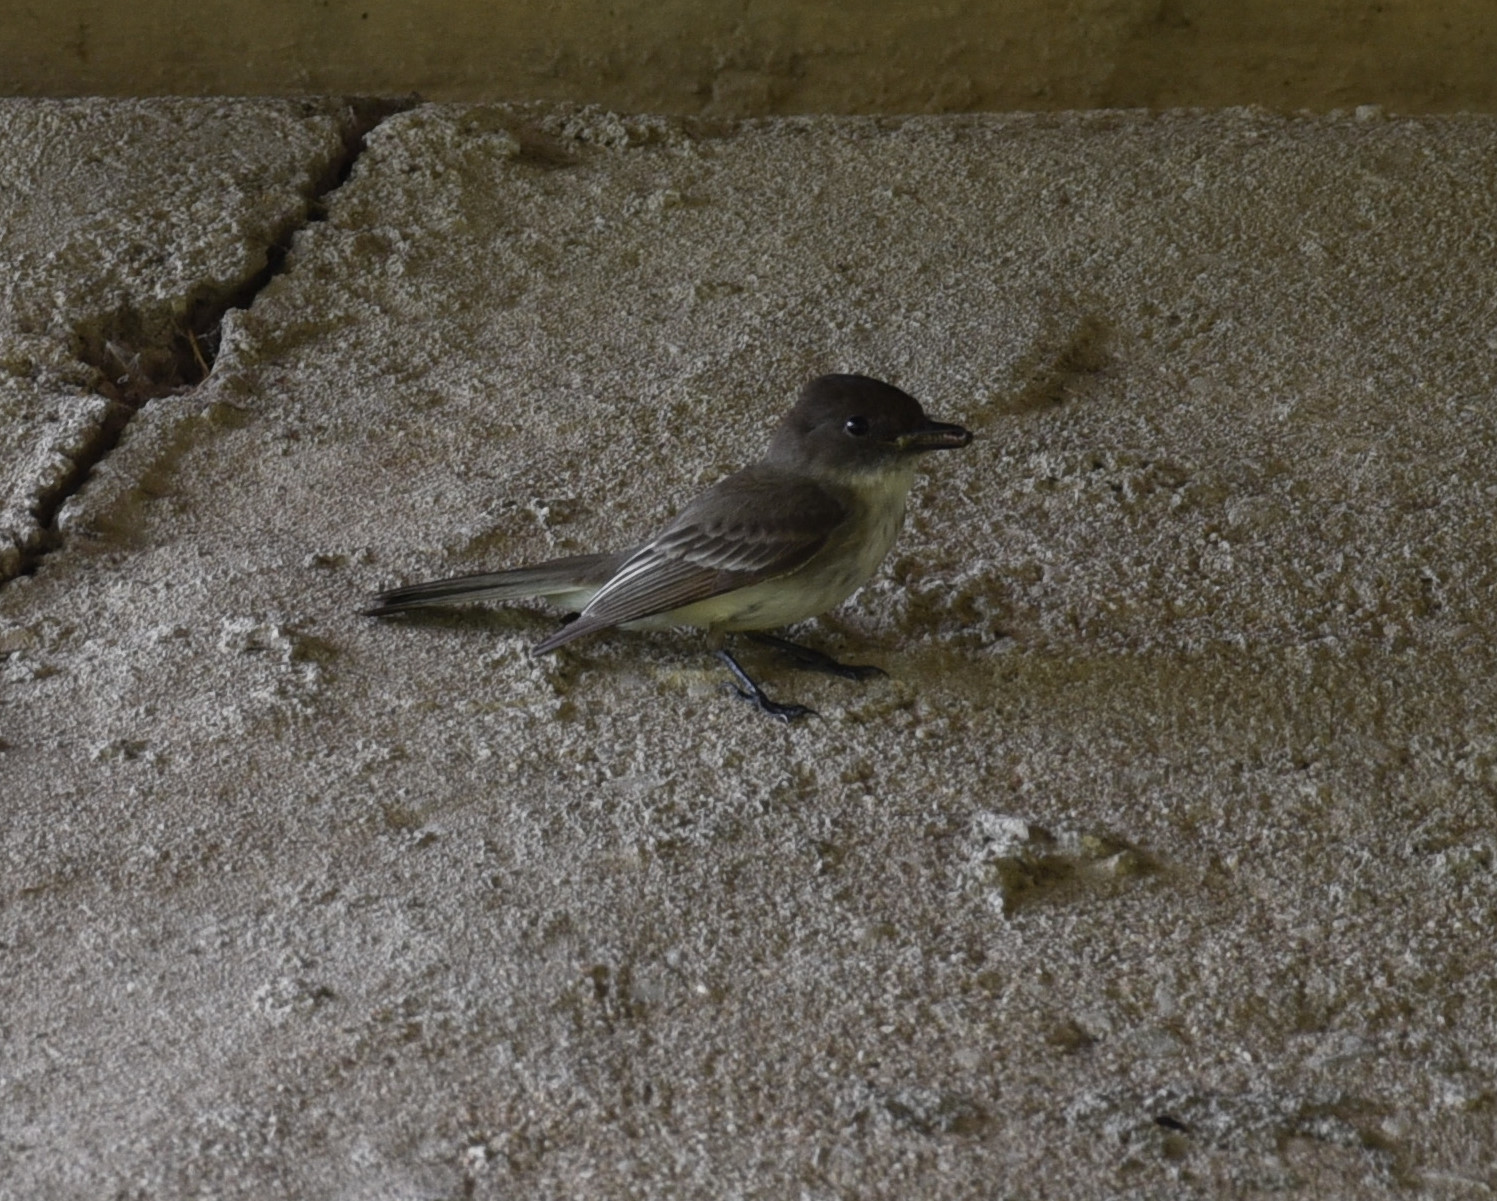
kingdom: Animalia
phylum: Chordata
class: Aves
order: Passeriformes
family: Tyrannidae
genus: Sayornis
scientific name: Sayornis phoebe
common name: Eastern phoebe
